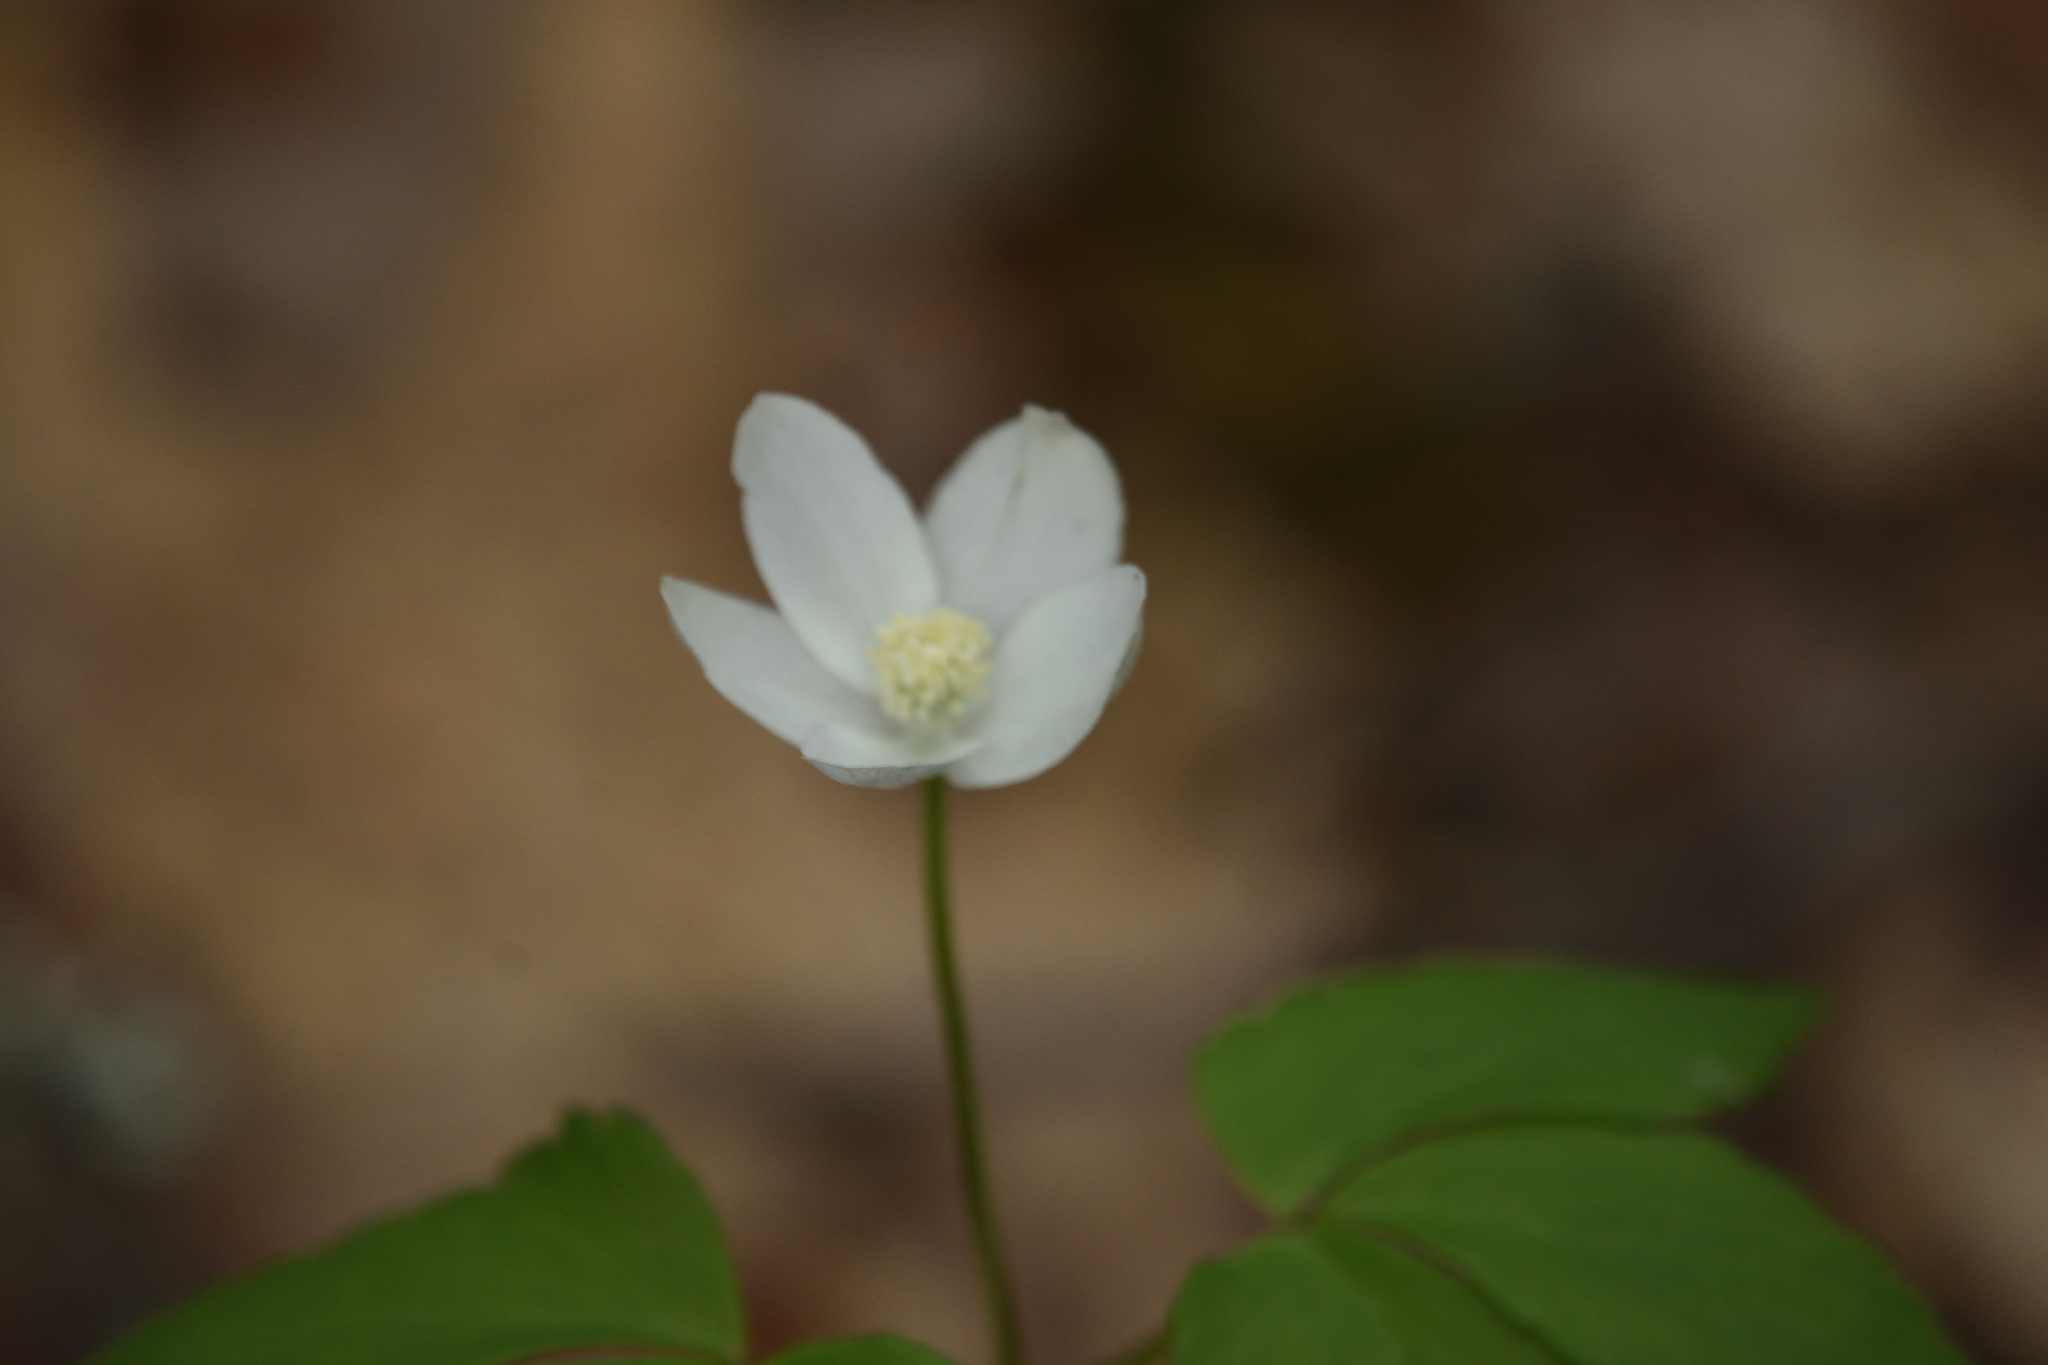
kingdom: Plantae
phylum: Tracheophyta
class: Magnoliopsida
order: Ranunculales
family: Ranunculaceae
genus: Anemone
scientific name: Anemone lancifolia
